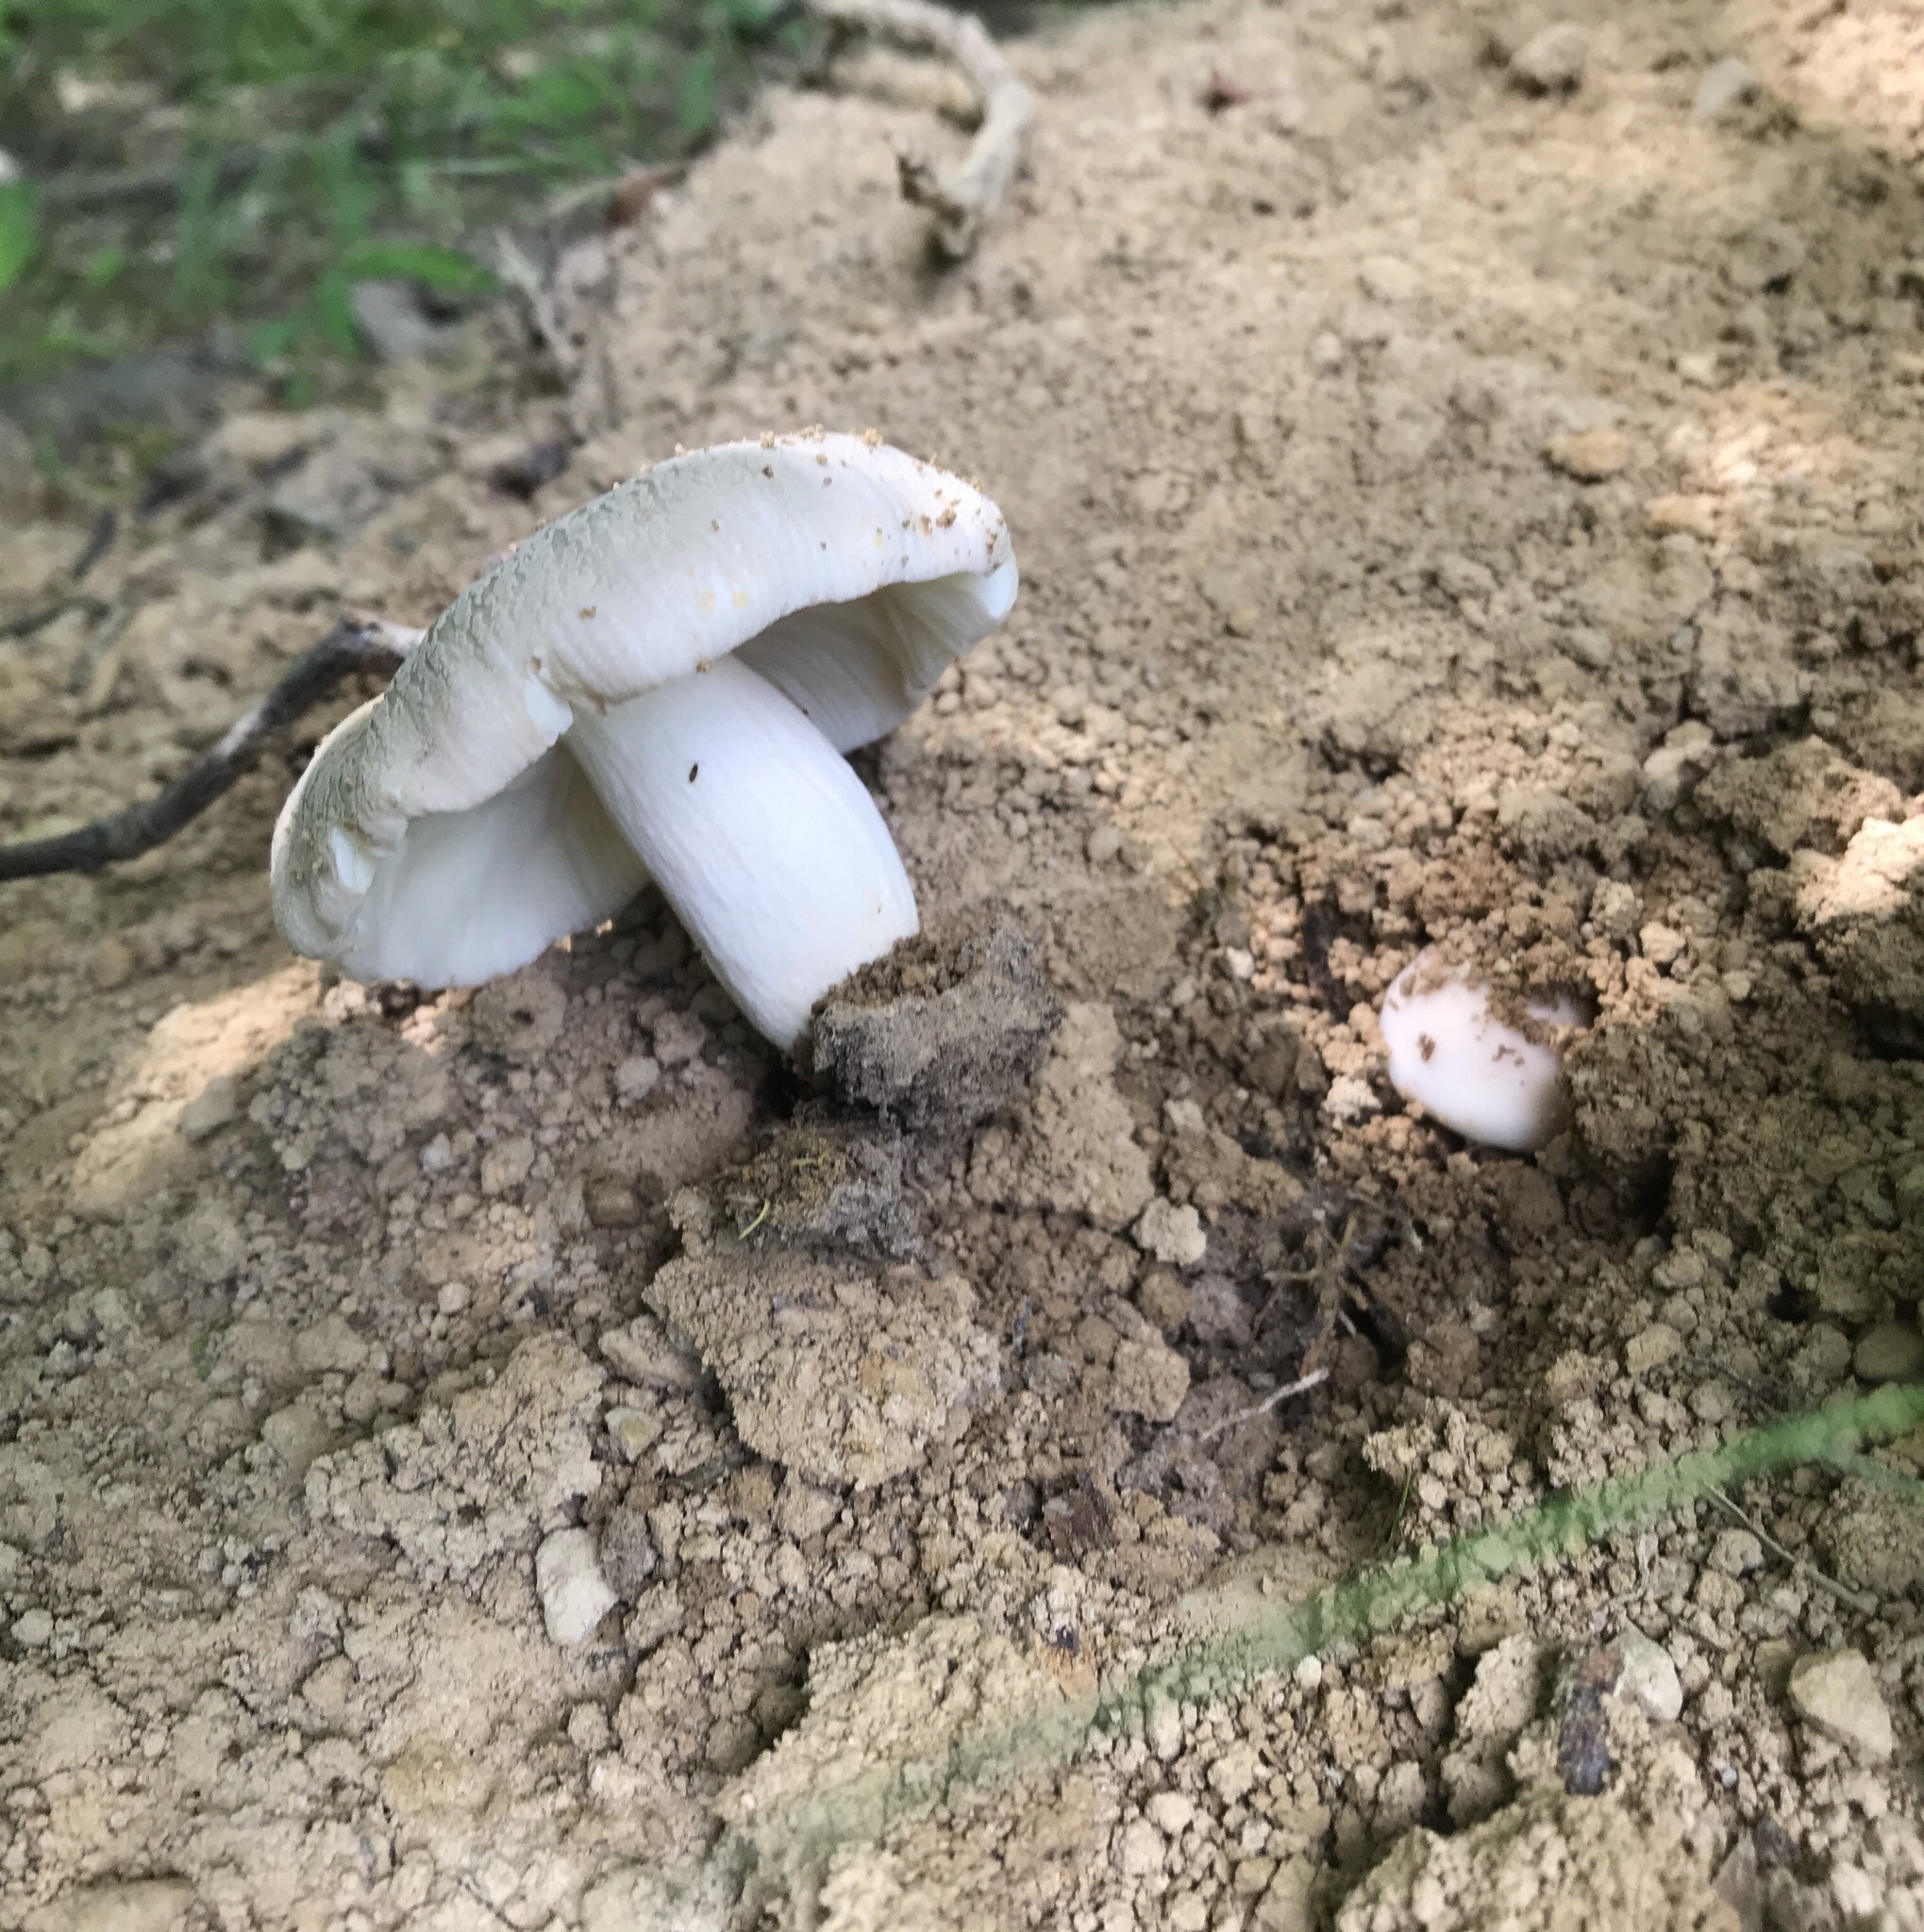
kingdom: Fungi
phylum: Basidiomycota
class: Agaricomycetes
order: Russulales
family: Russulaceae
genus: Russula
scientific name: Russula pulverulenta
